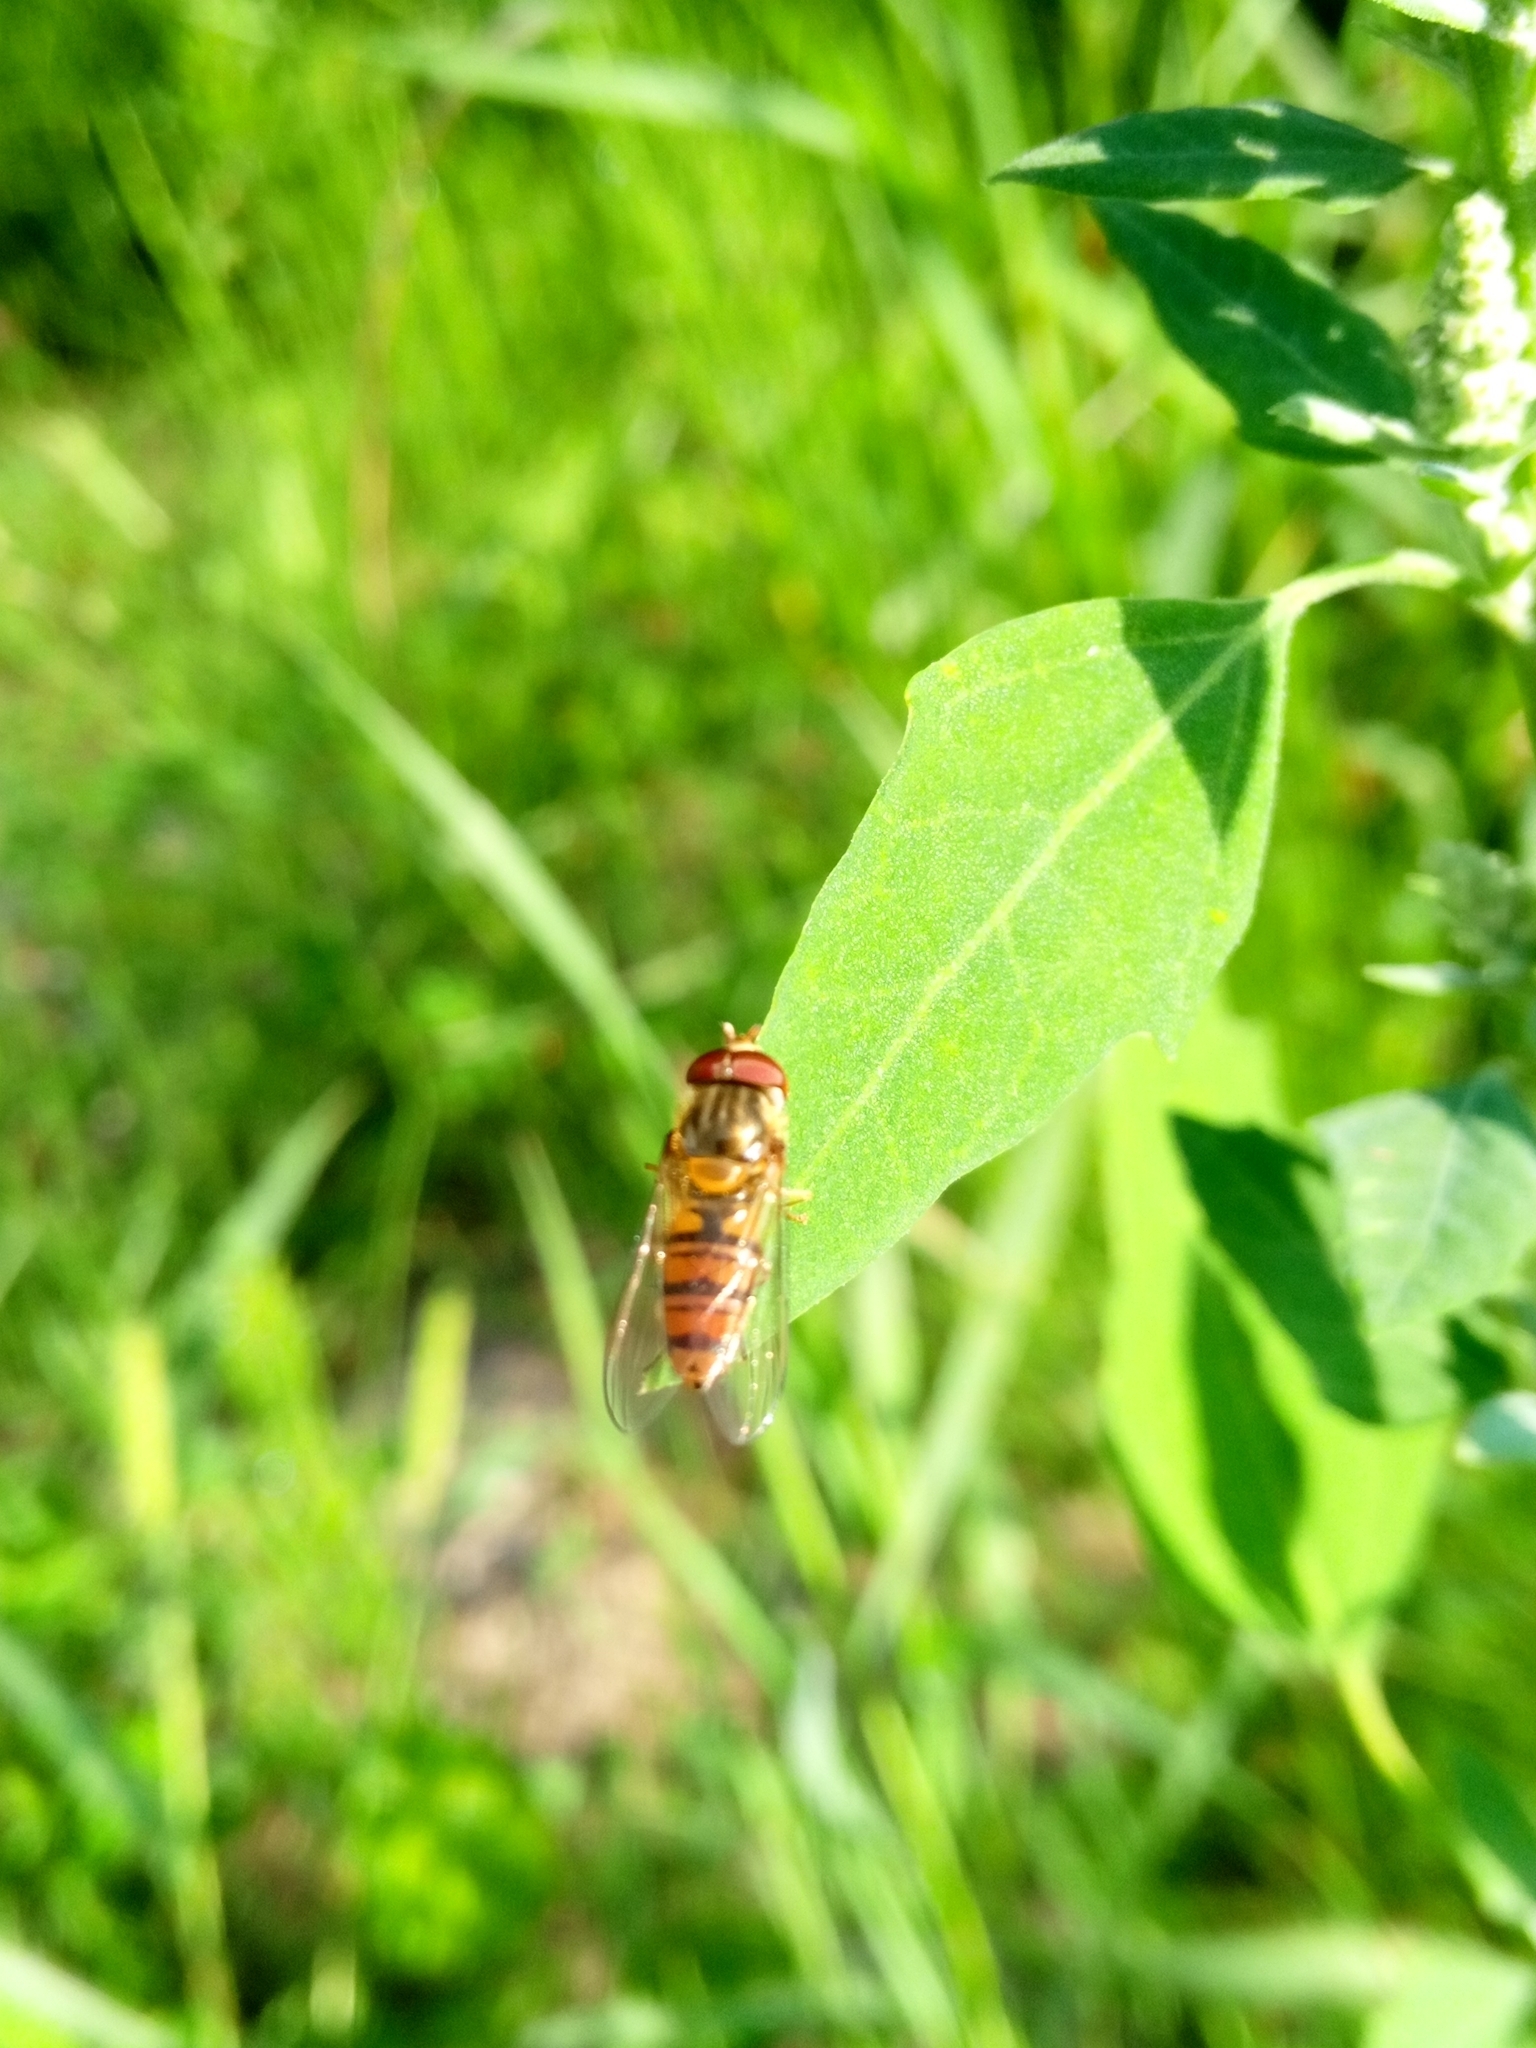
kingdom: Animalia
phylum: Arthropoda
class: Insecta
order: Diptera
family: Syrphidae
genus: Episyrphus
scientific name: Episyrphus balteatus
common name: Marmalade hoverfly
